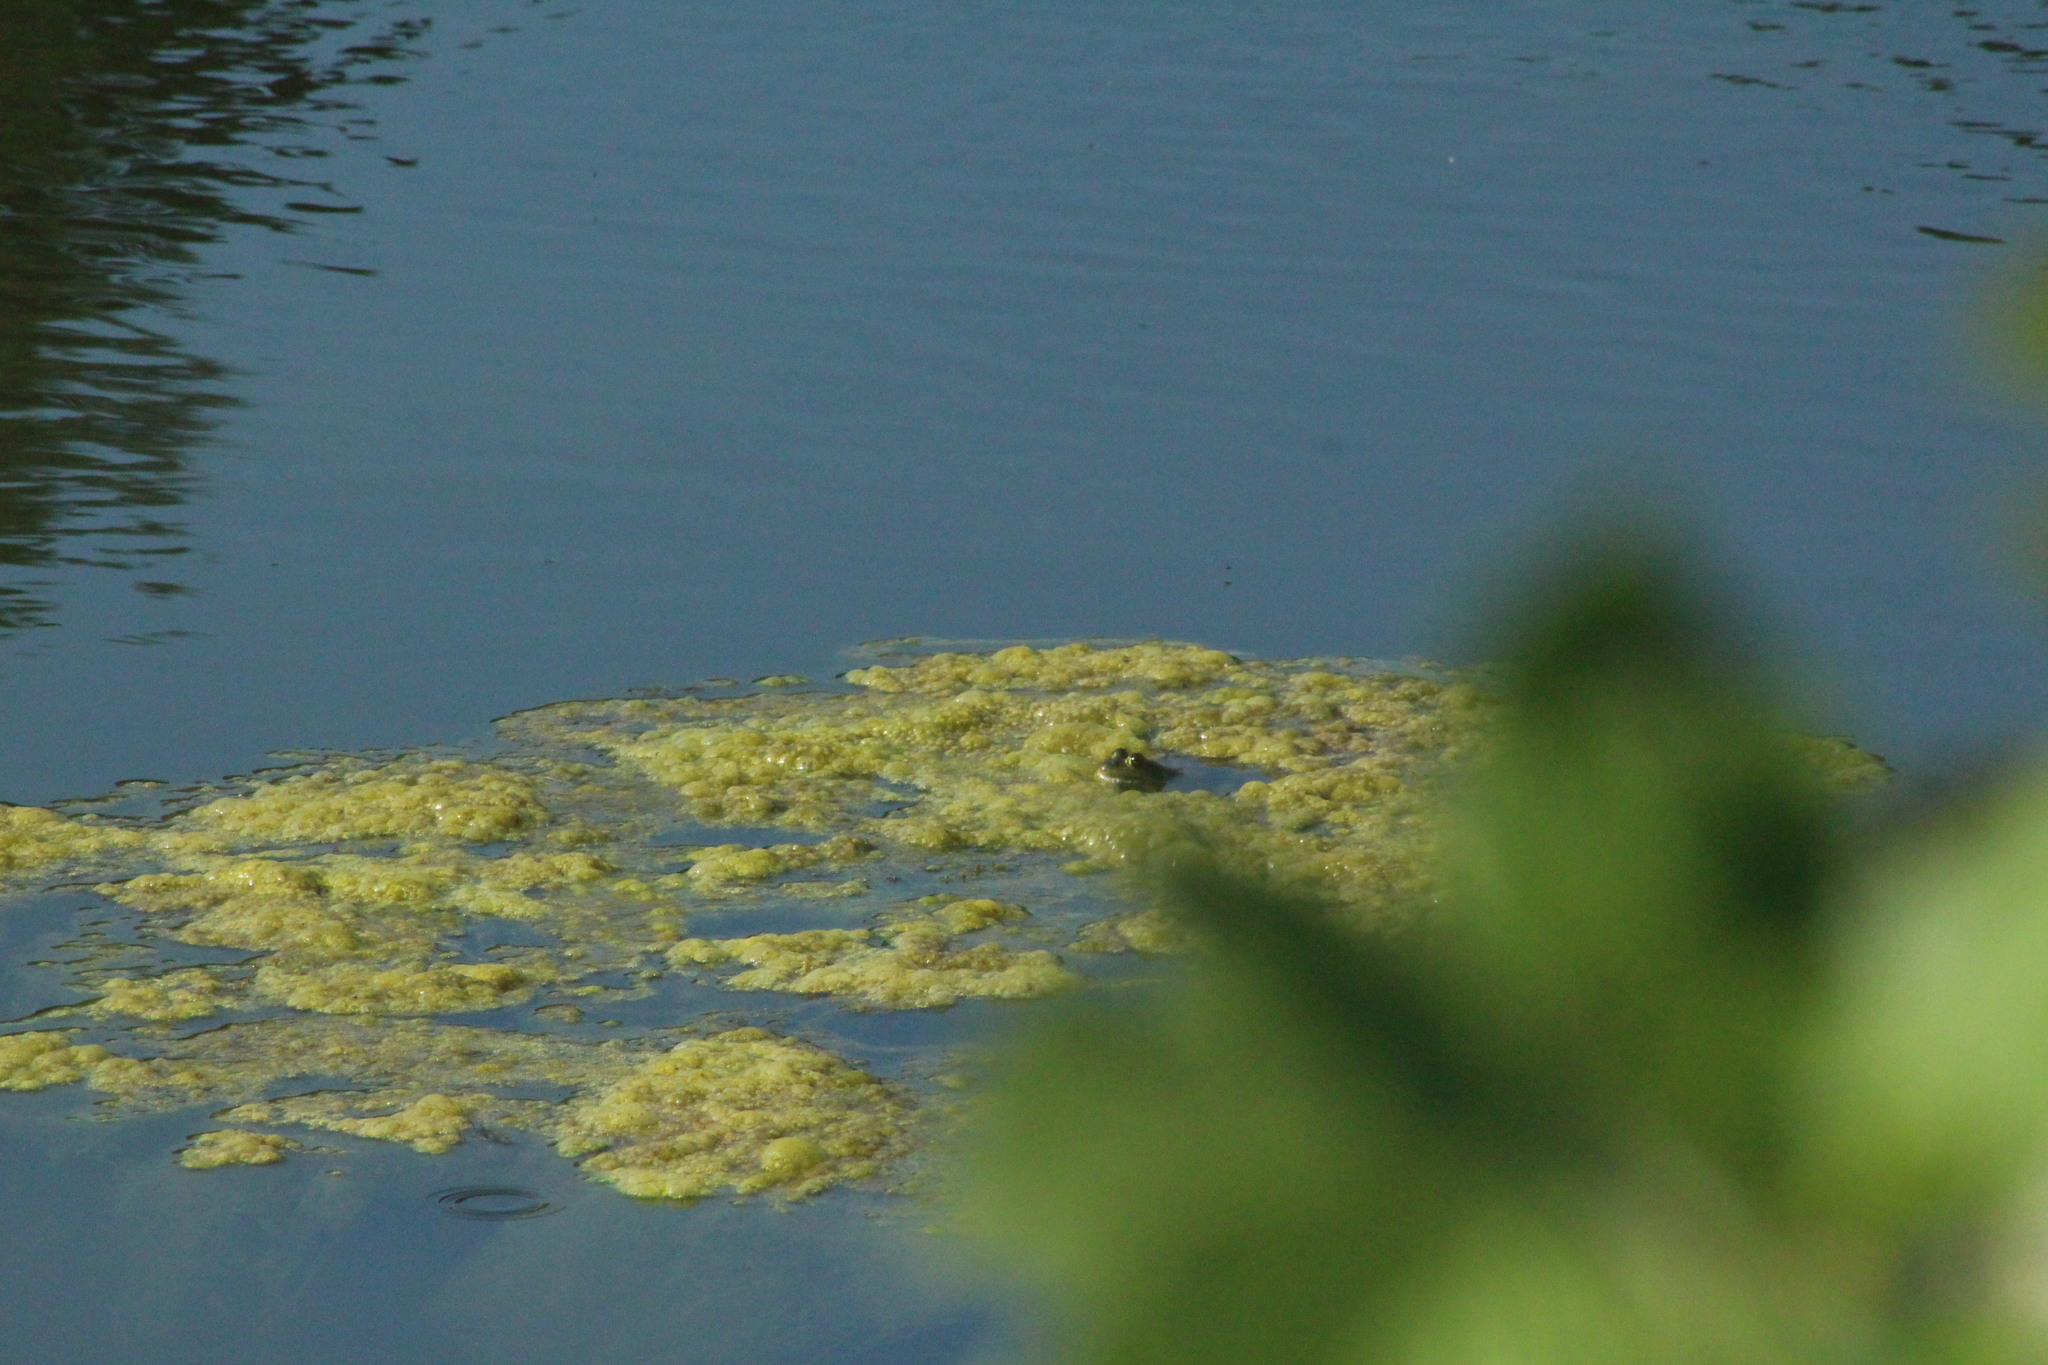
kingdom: Animalia
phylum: Chordata
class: Amphibia
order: Anura
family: Ranidae
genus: Lithobates
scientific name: Lithobates catesbeianus
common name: American bullfrog
